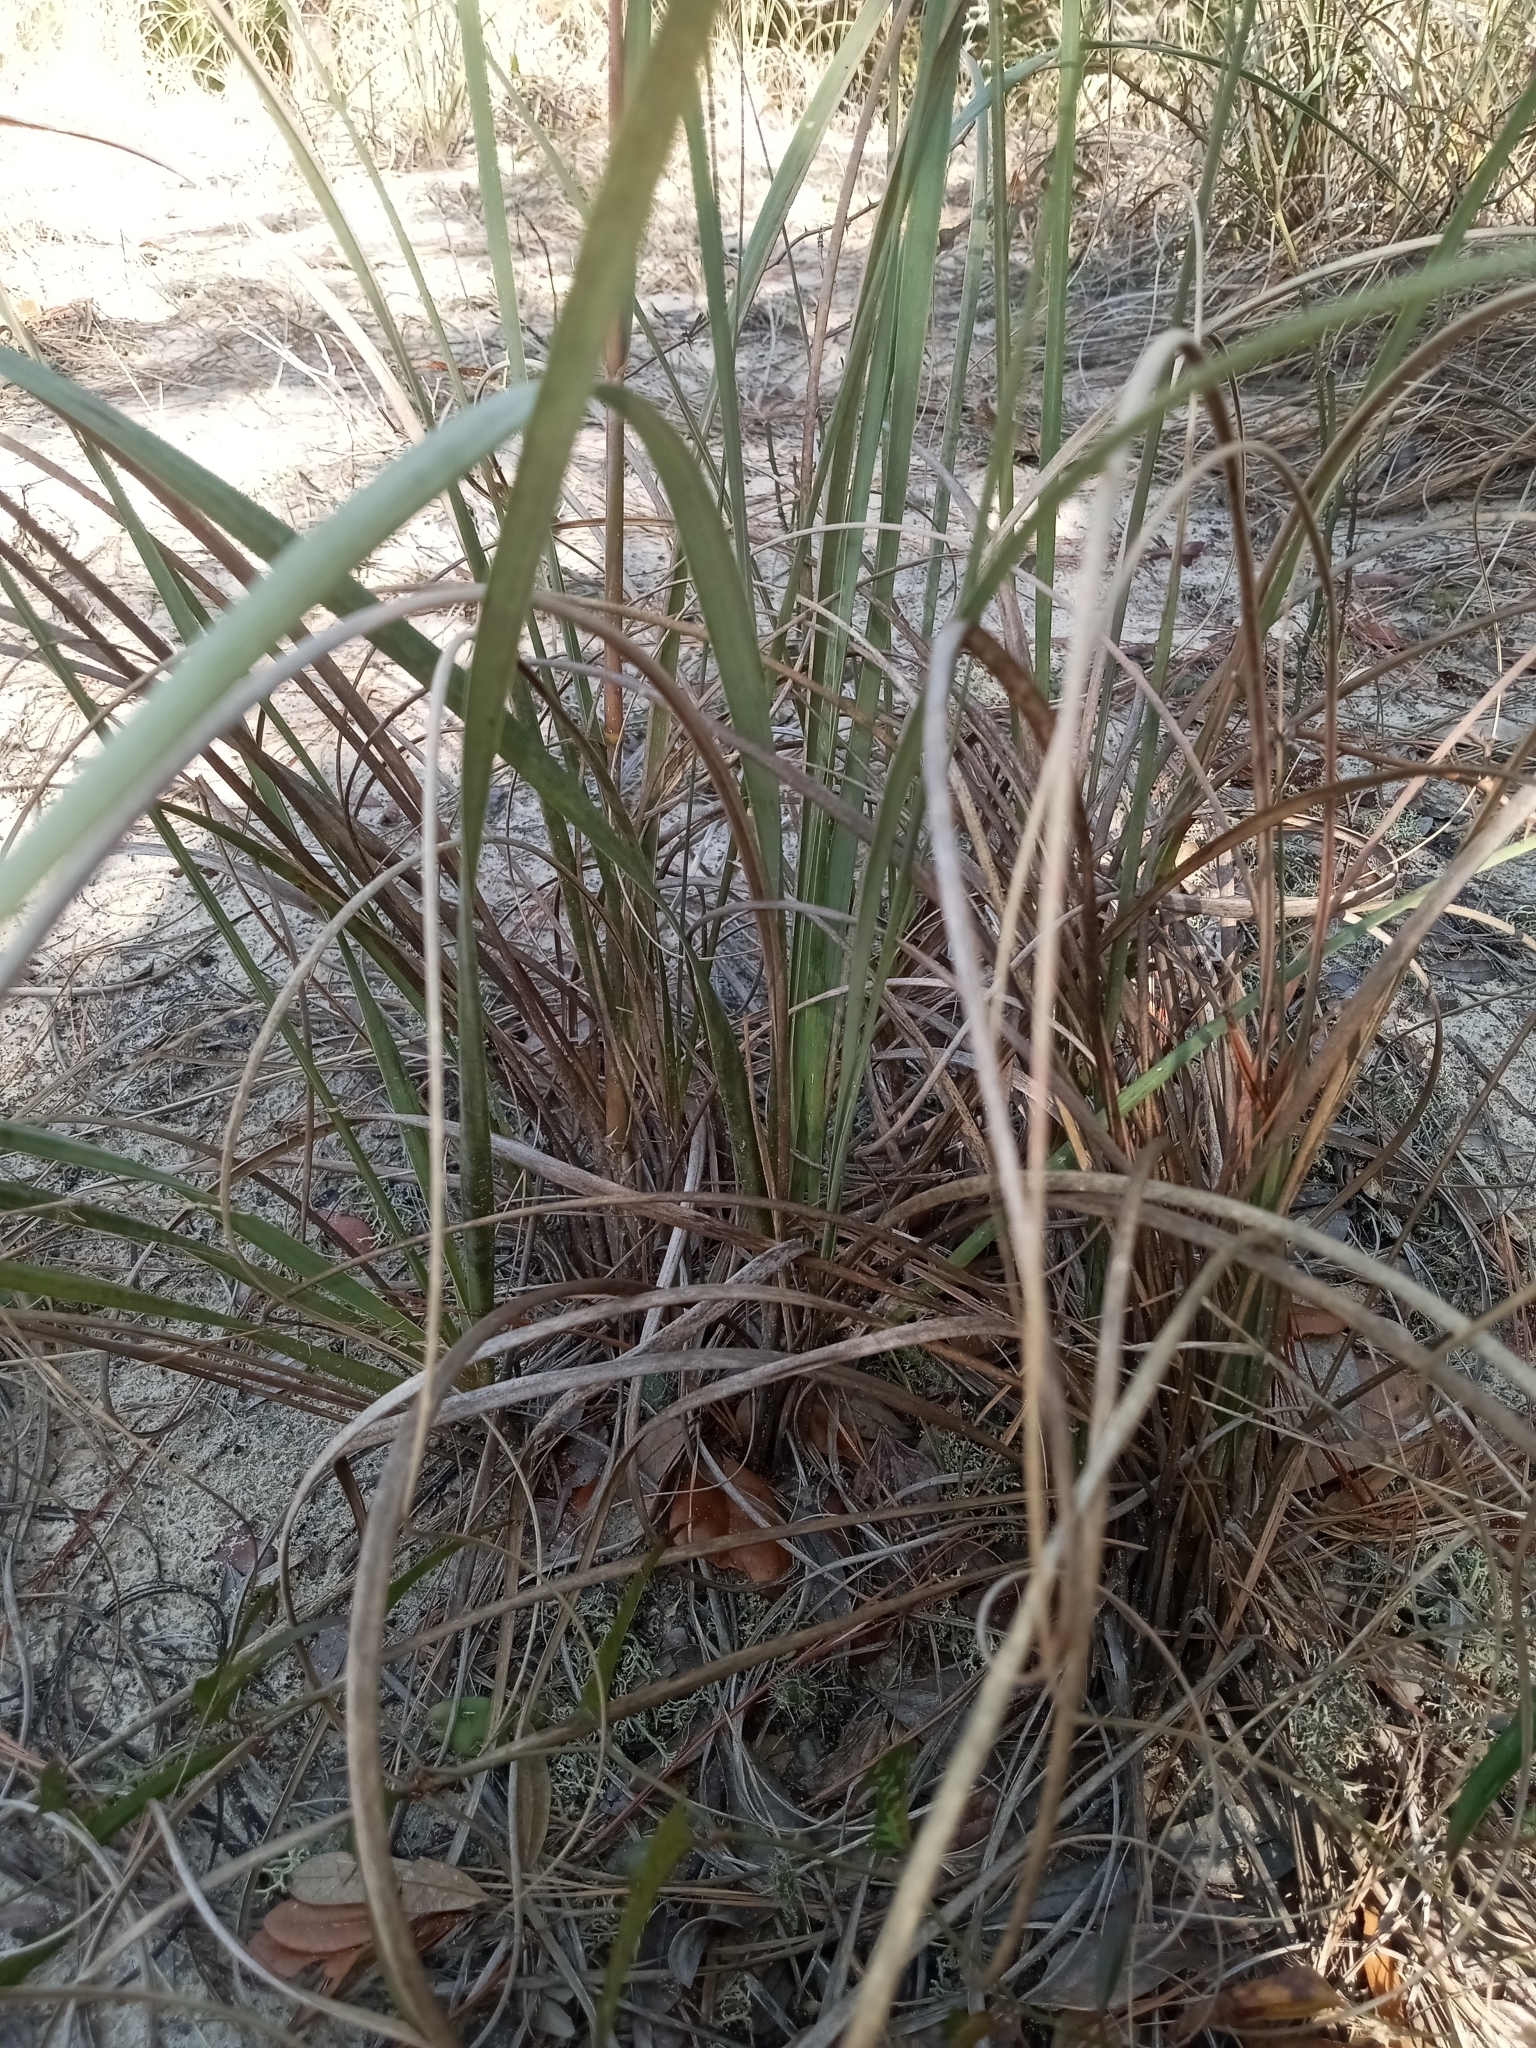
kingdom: Plantae
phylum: Tracheophyta
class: Liliopsida
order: Poales
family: Poaceae
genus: Uniola
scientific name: Uniola paniculata
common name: Seaside-oats
